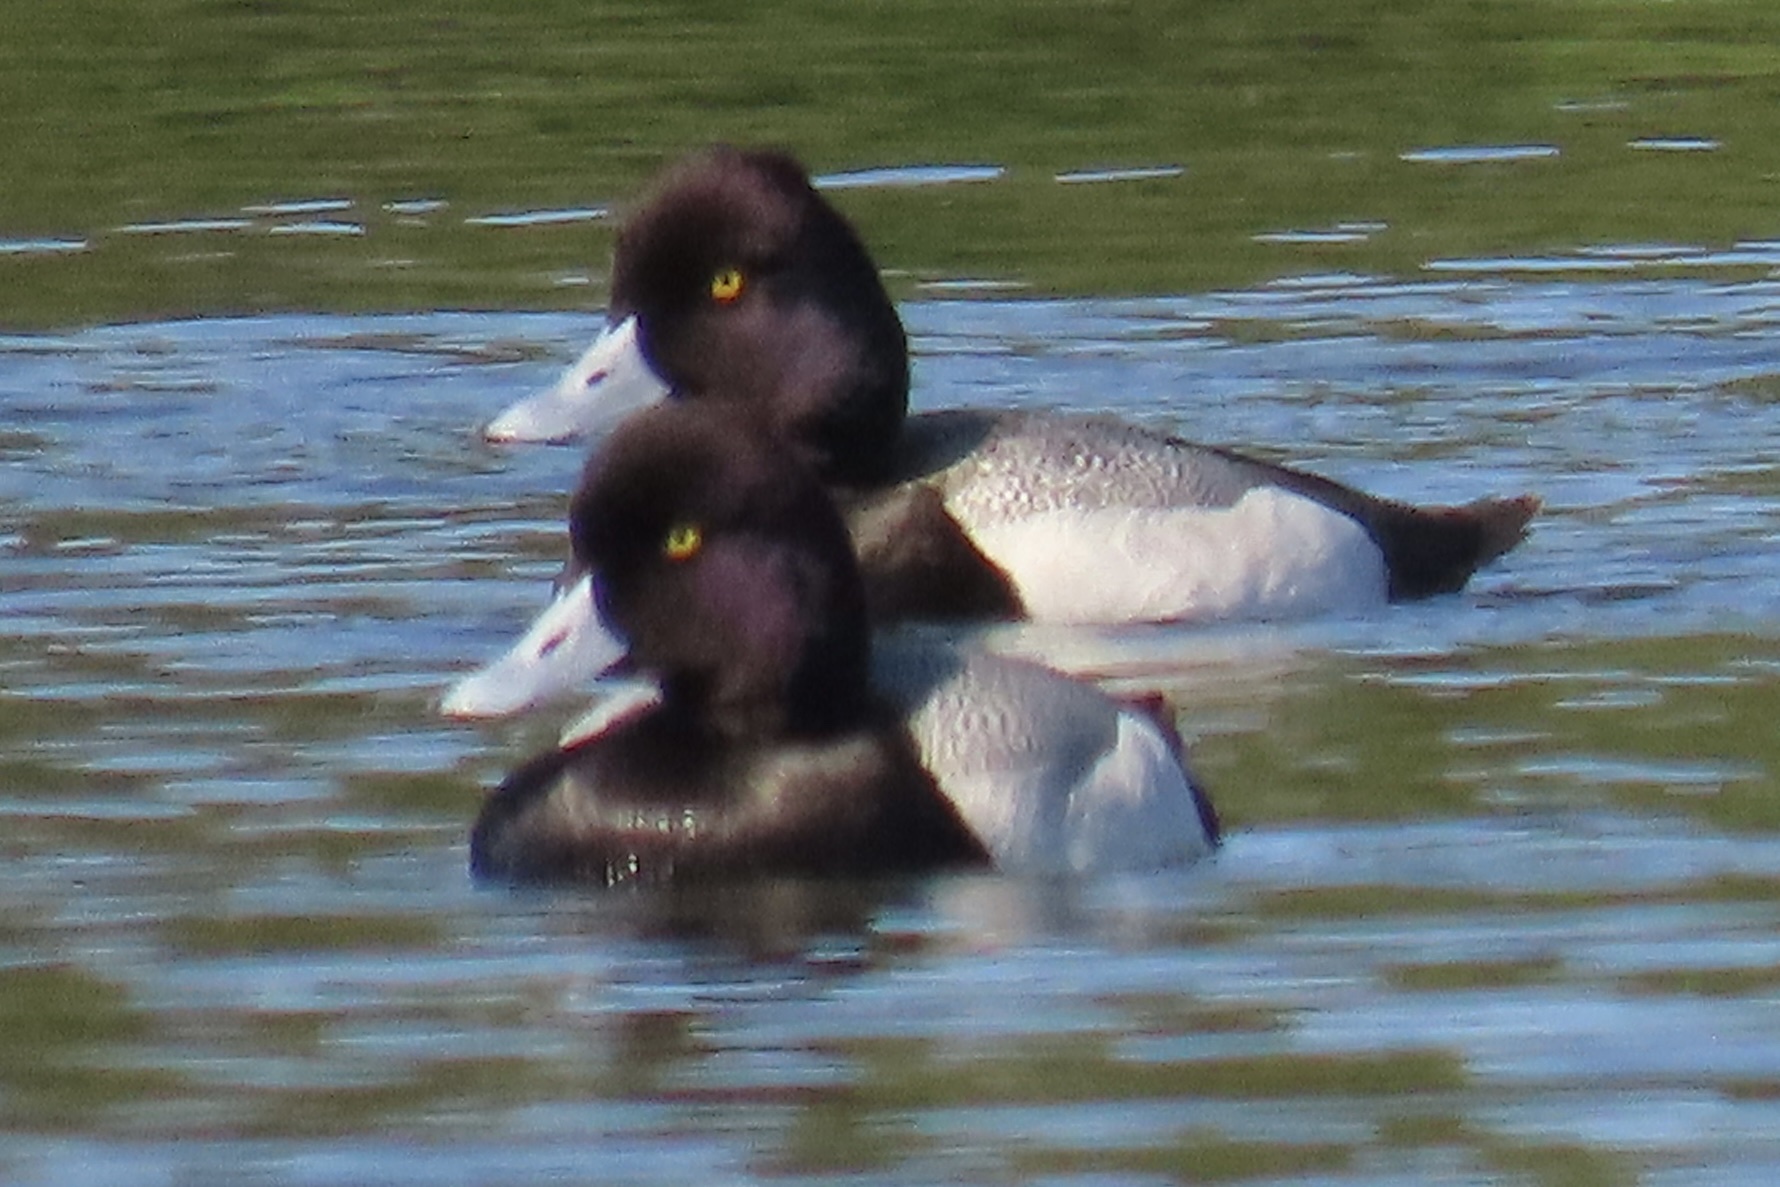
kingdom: Animalia
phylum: Chordata
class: Aves
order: Anseriformes
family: Anatidae
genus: Aythya
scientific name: Aythya affinis
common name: Lesser scaup
